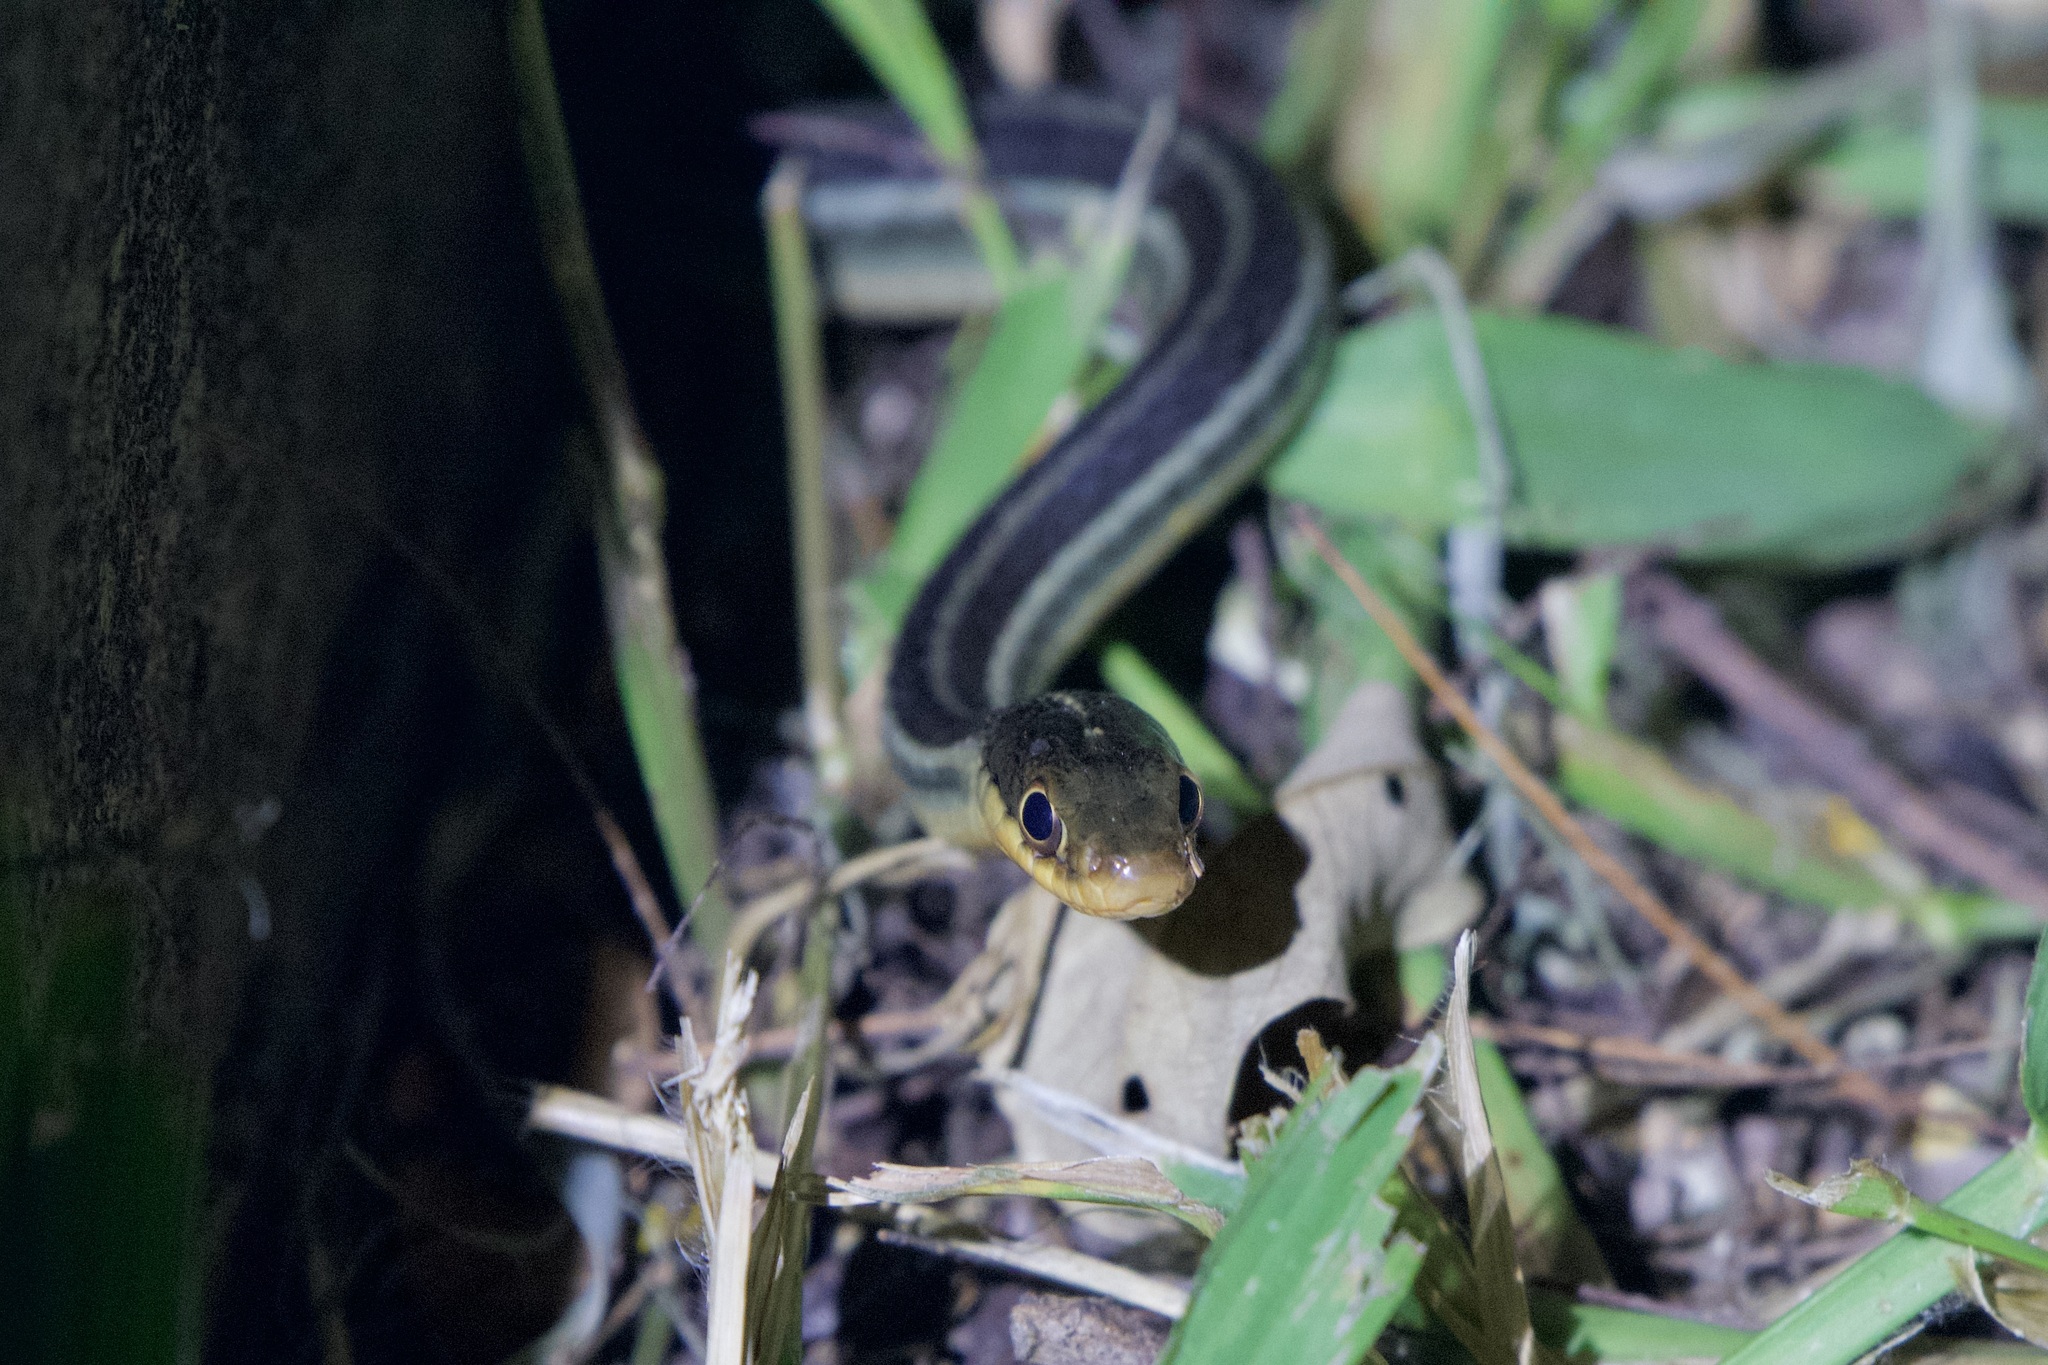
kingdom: Animalia
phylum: Chordata
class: Squamata
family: Colubridae
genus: Thamnophis
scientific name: Thamnophis proximus
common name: Western ribbon snake
